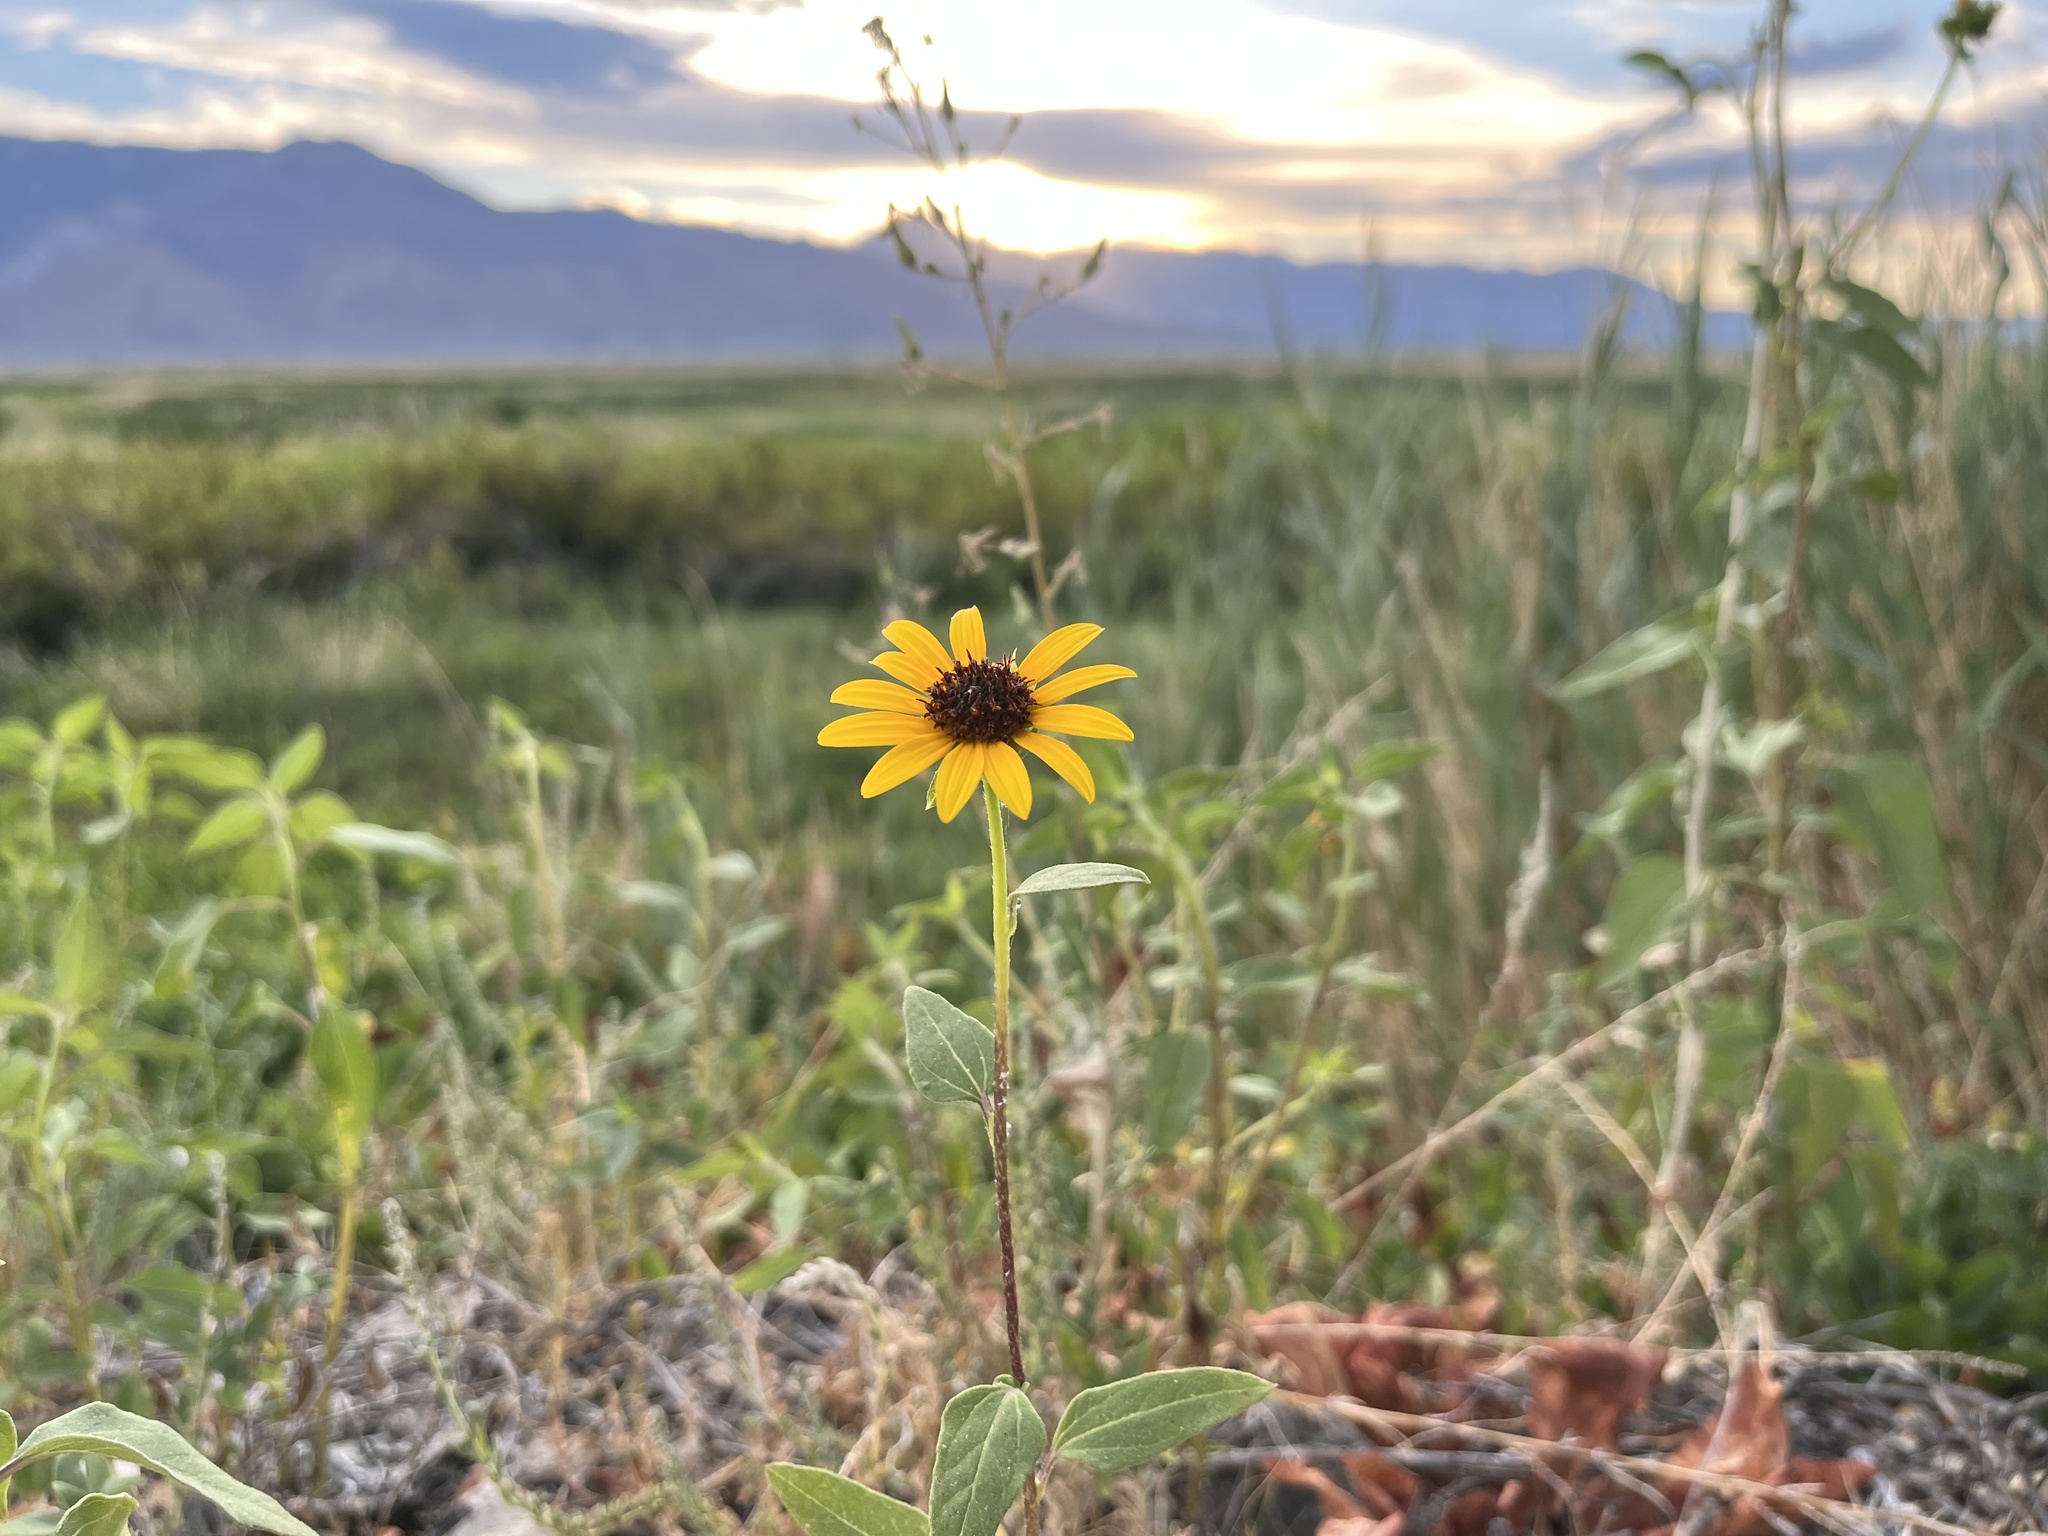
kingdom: Plantae
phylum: Tracheophyta
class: Magnoliopsida
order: Asterales
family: Asteraceae
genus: Helianthus
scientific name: Helianthus annuus
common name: Sunflower
